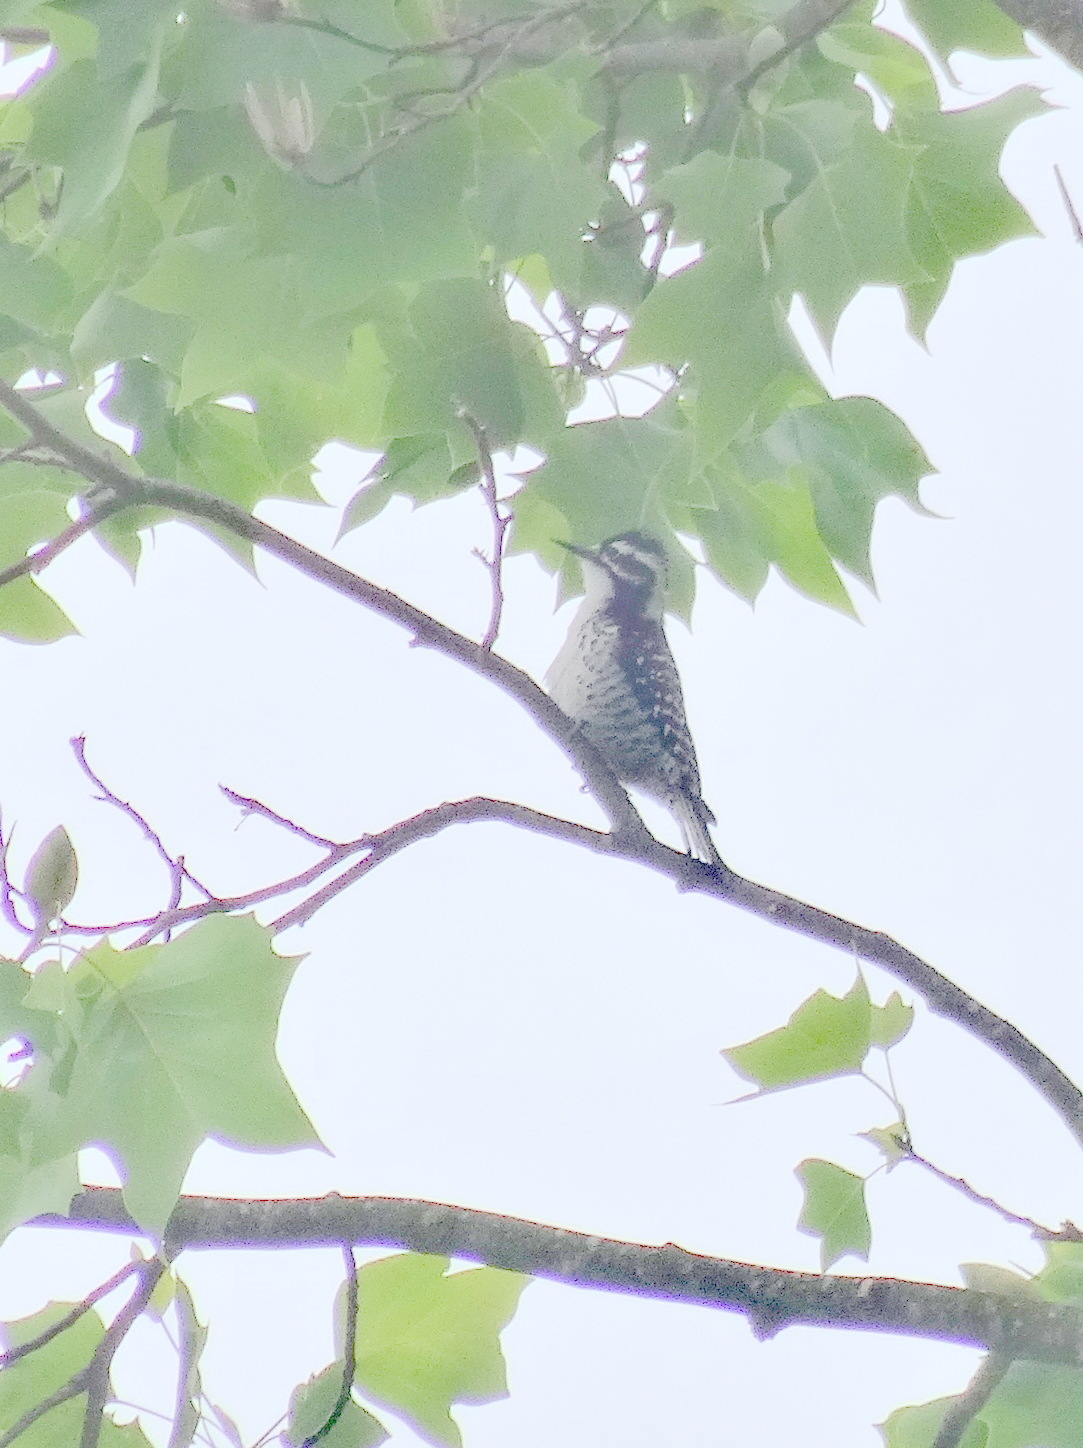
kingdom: Animalia
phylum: Chordata
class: Aves
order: Piciformes
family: Picidae
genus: Dryobates
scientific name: Dryobates nuttallii
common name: Nuttall's woodpecker
